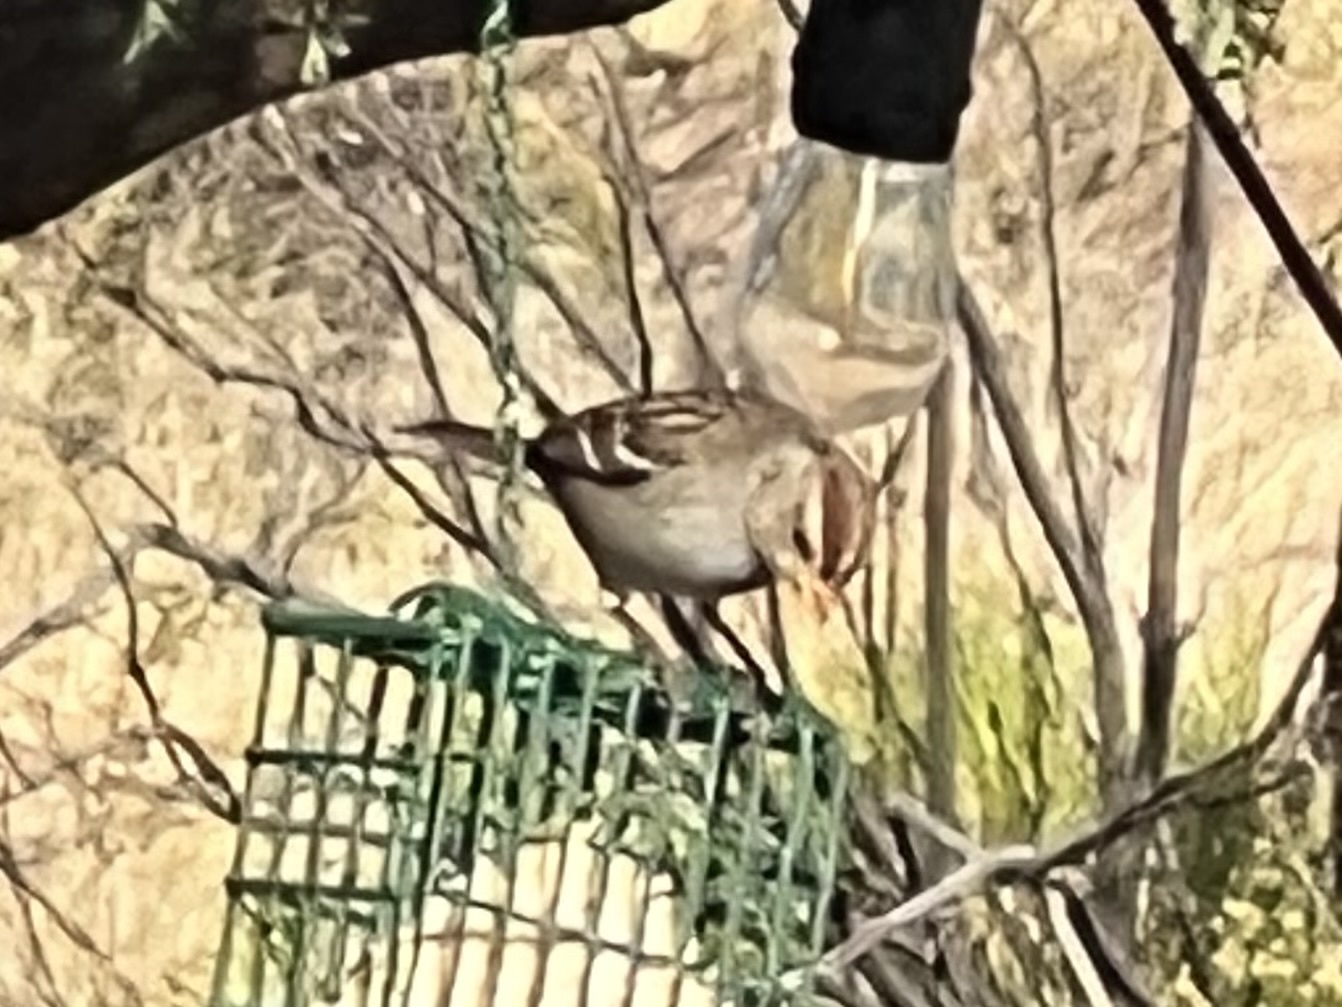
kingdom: Animalia
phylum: Chordata
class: Aves
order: Passeriformes
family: Passerellidae
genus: Zonotrichia
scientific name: Zonotrichia leucophrys
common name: White-crowned sparrow
